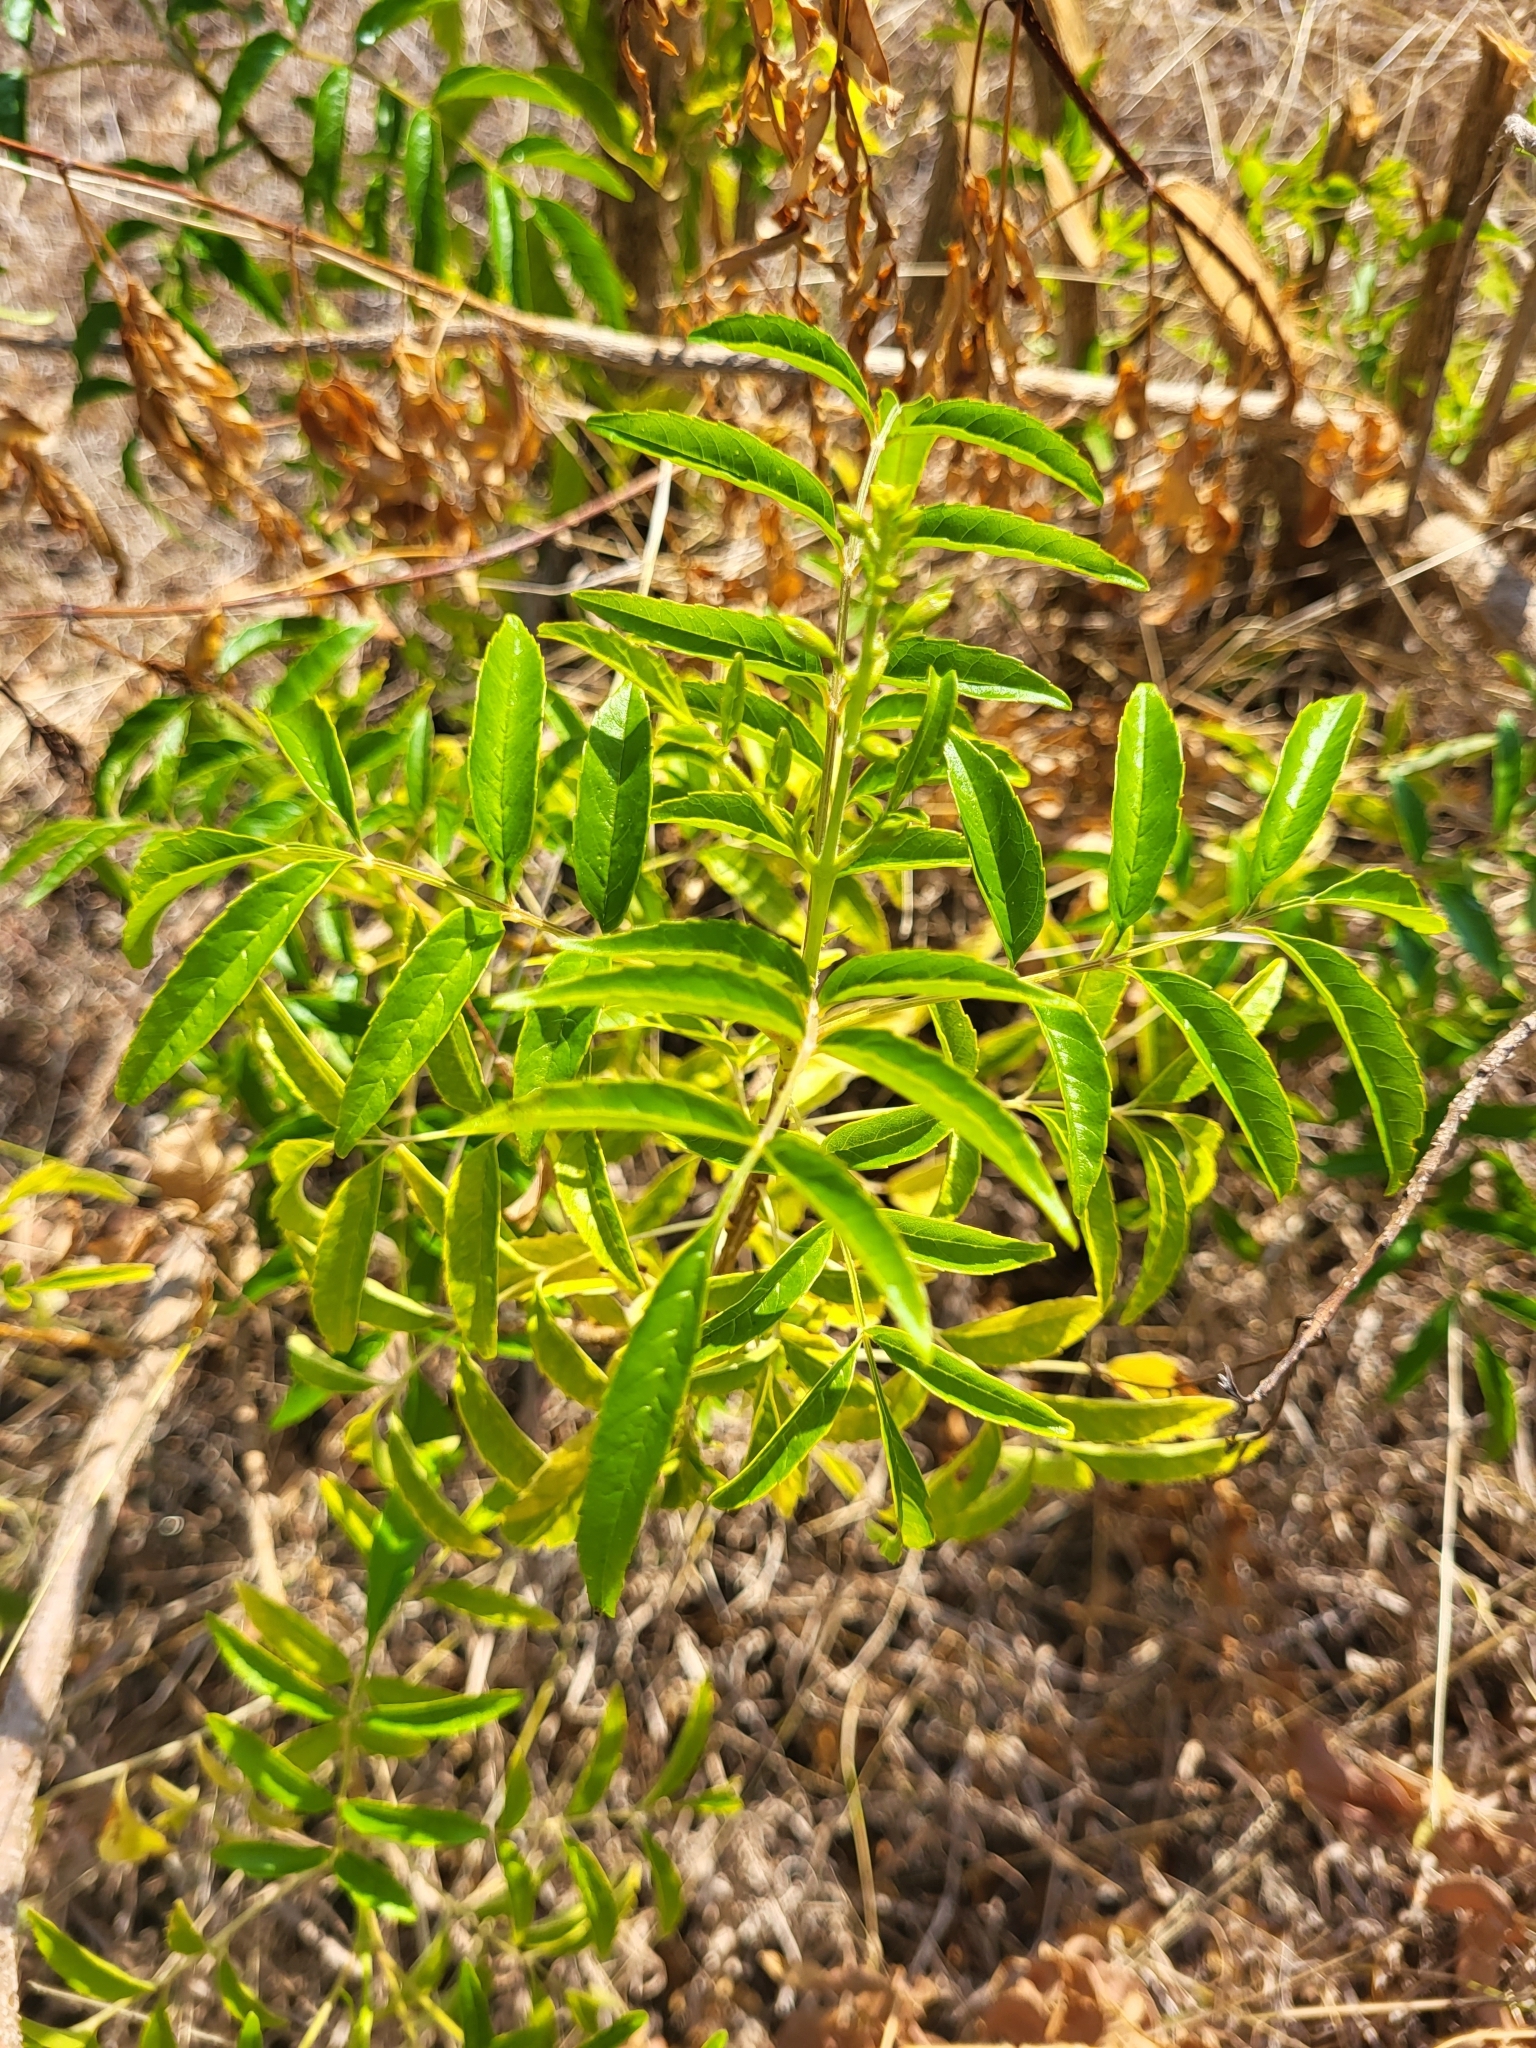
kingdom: Plantae
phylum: Tracheophyta
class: Magnoliopsida
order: Lamiales
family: Bignoniaceae
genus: Tecoma
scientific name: Tecoma stans
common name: Yellow trumpetbush
